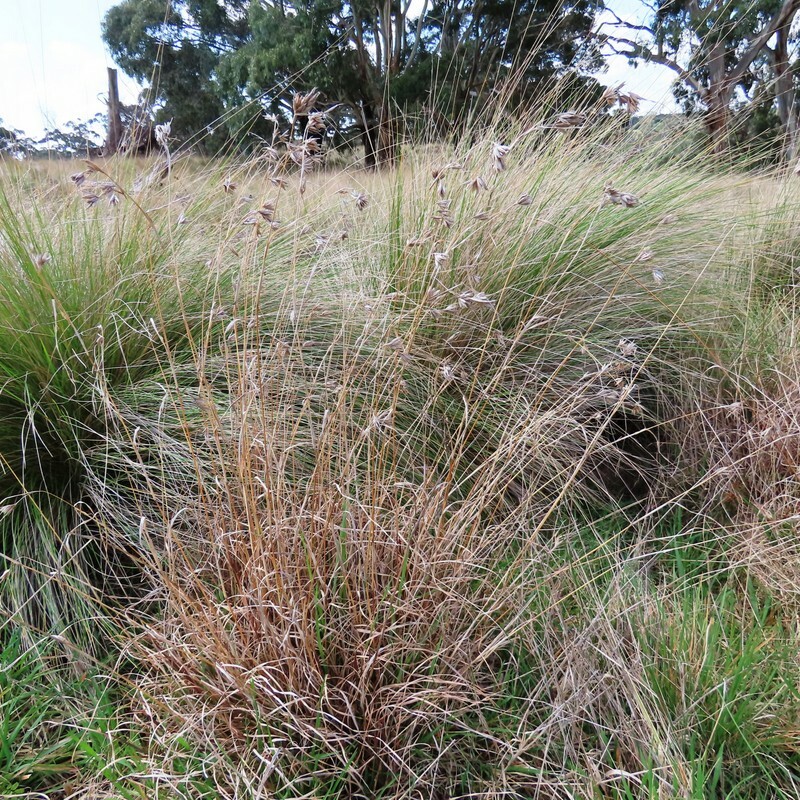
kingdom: Plantae
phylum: Tracheophyta
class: Liliopsida
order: Poales
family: Poaceae
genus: Themeda
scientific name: Themeda triandra
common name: Kangaroo grass
